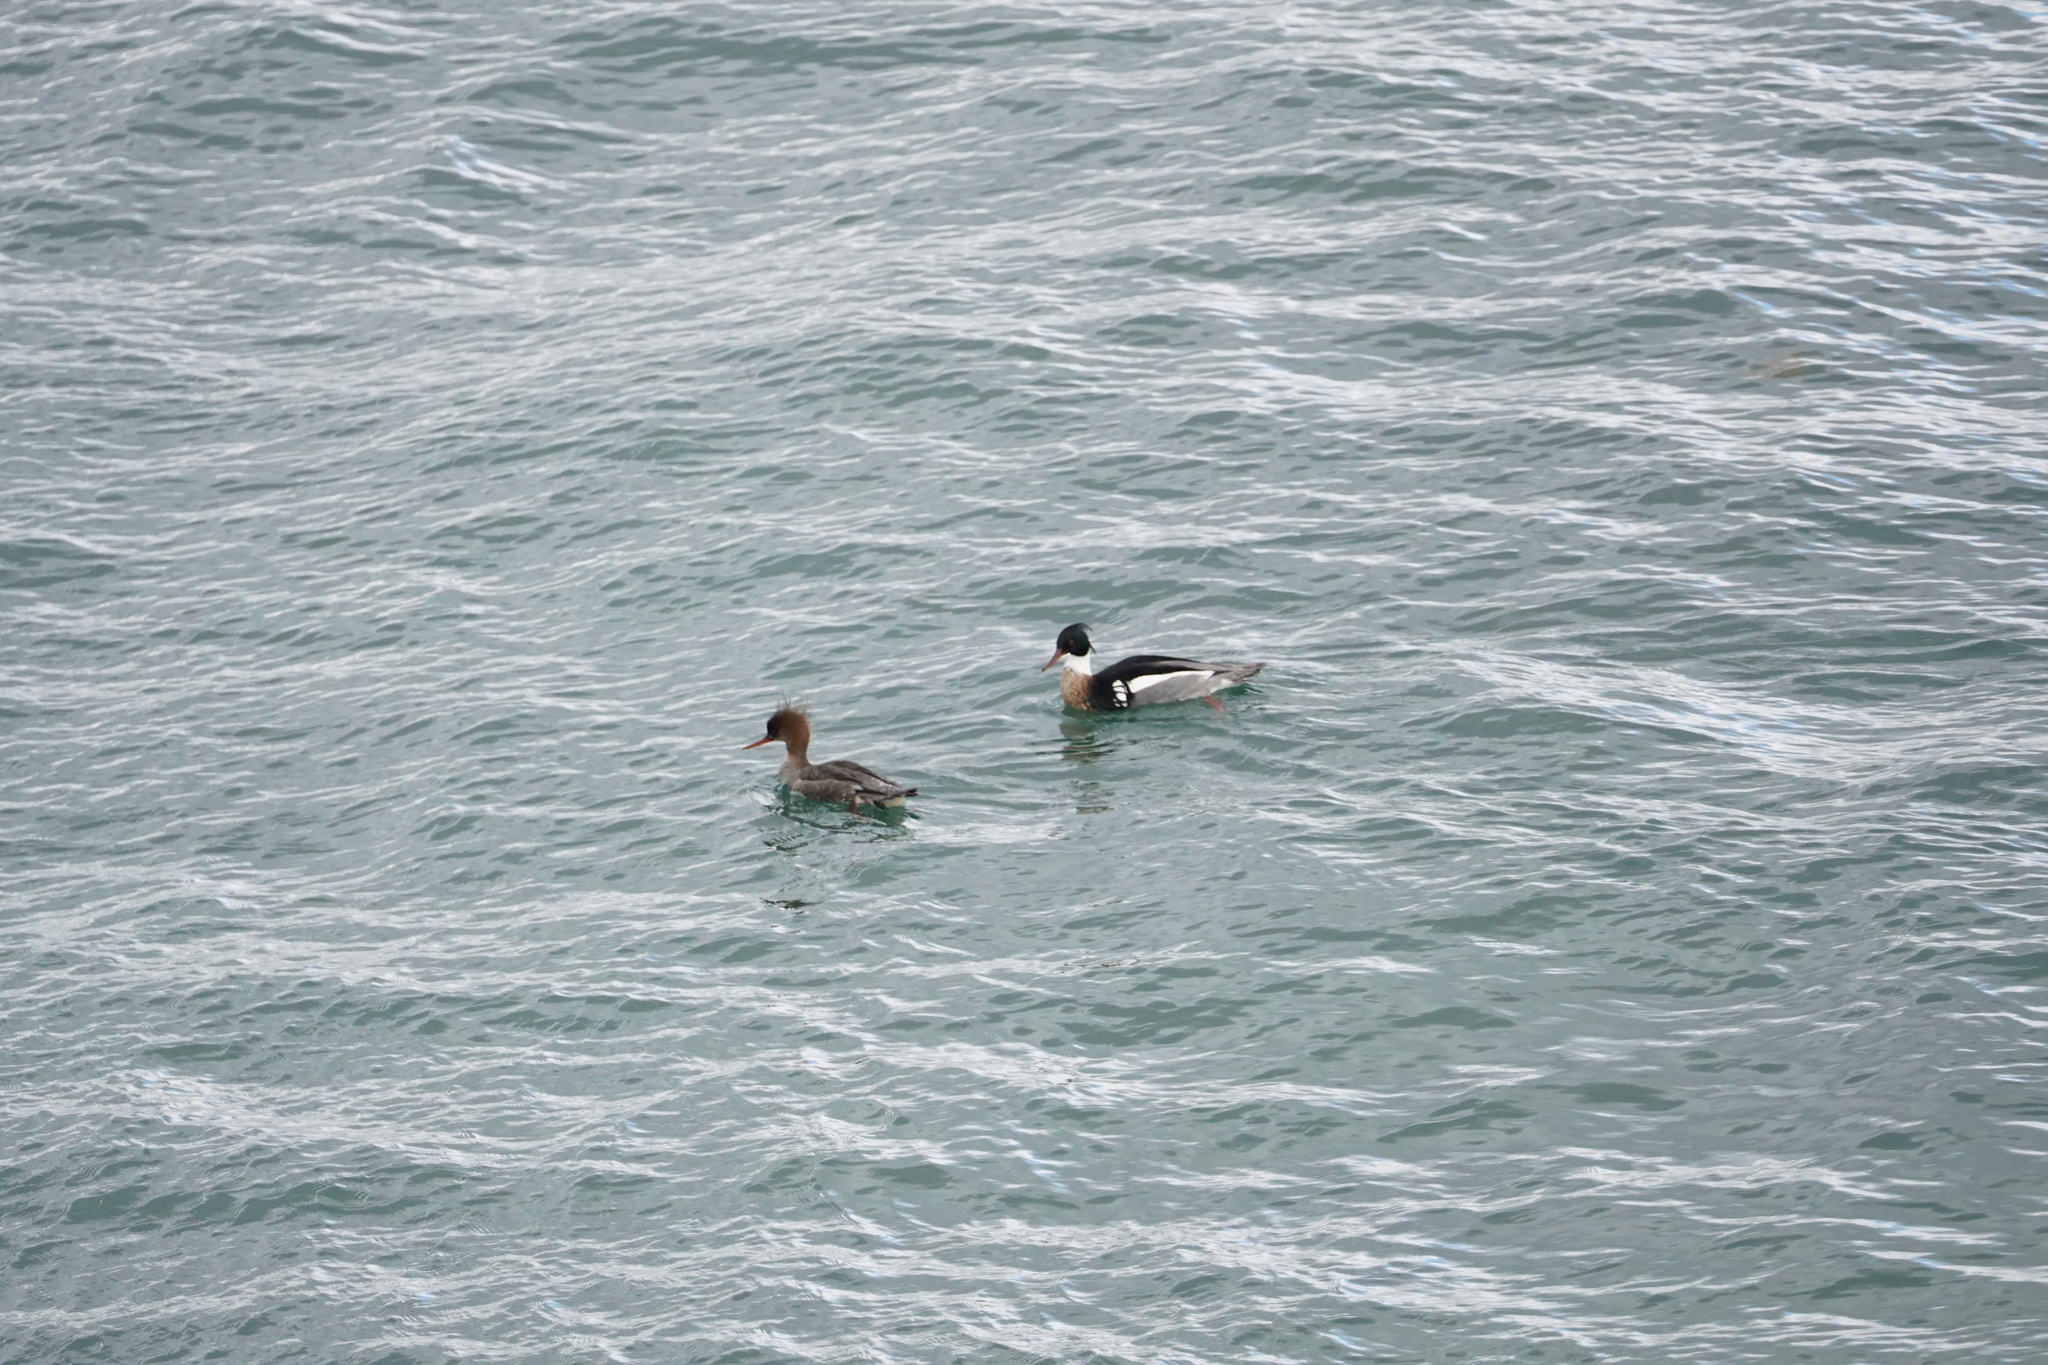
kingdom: Animalia
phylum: Chordata
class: Aves
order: Anseriformes
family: Anatidae
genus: Mergus
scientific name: Mergus serrator
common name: Red-breasted merganser
